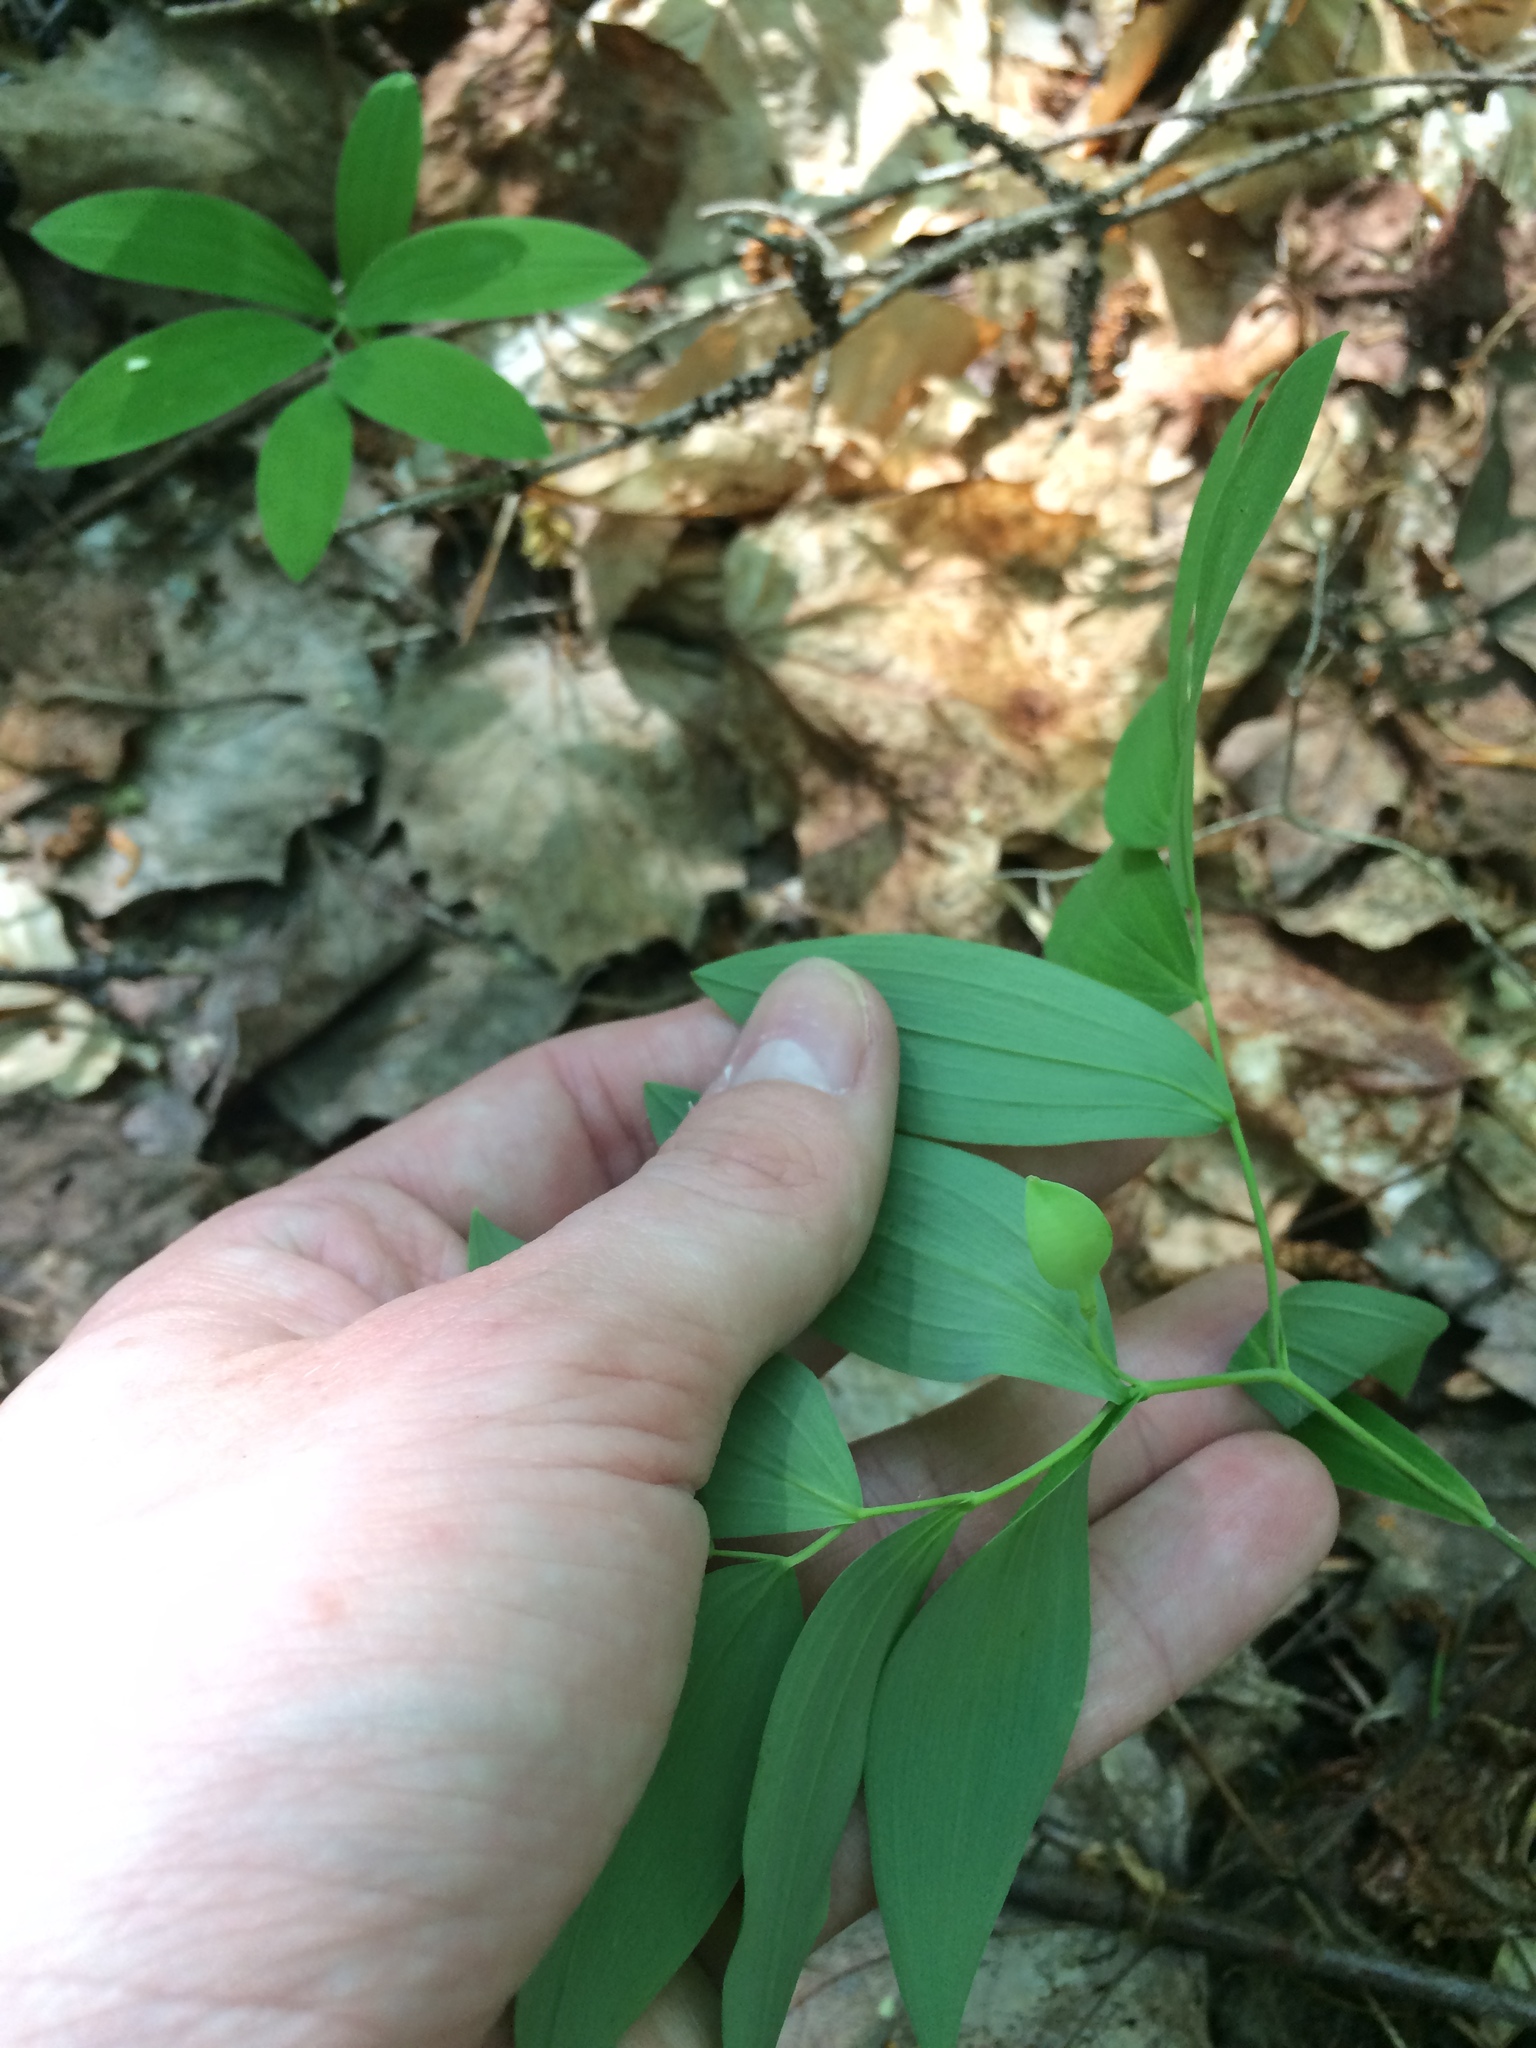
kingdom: Plantae
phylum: Tracheophyta
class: Liliopsida
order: Liliales
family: Colchicaceae
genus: Uvularia
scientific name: Uvularia sessilifolia
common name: Straw-lily
